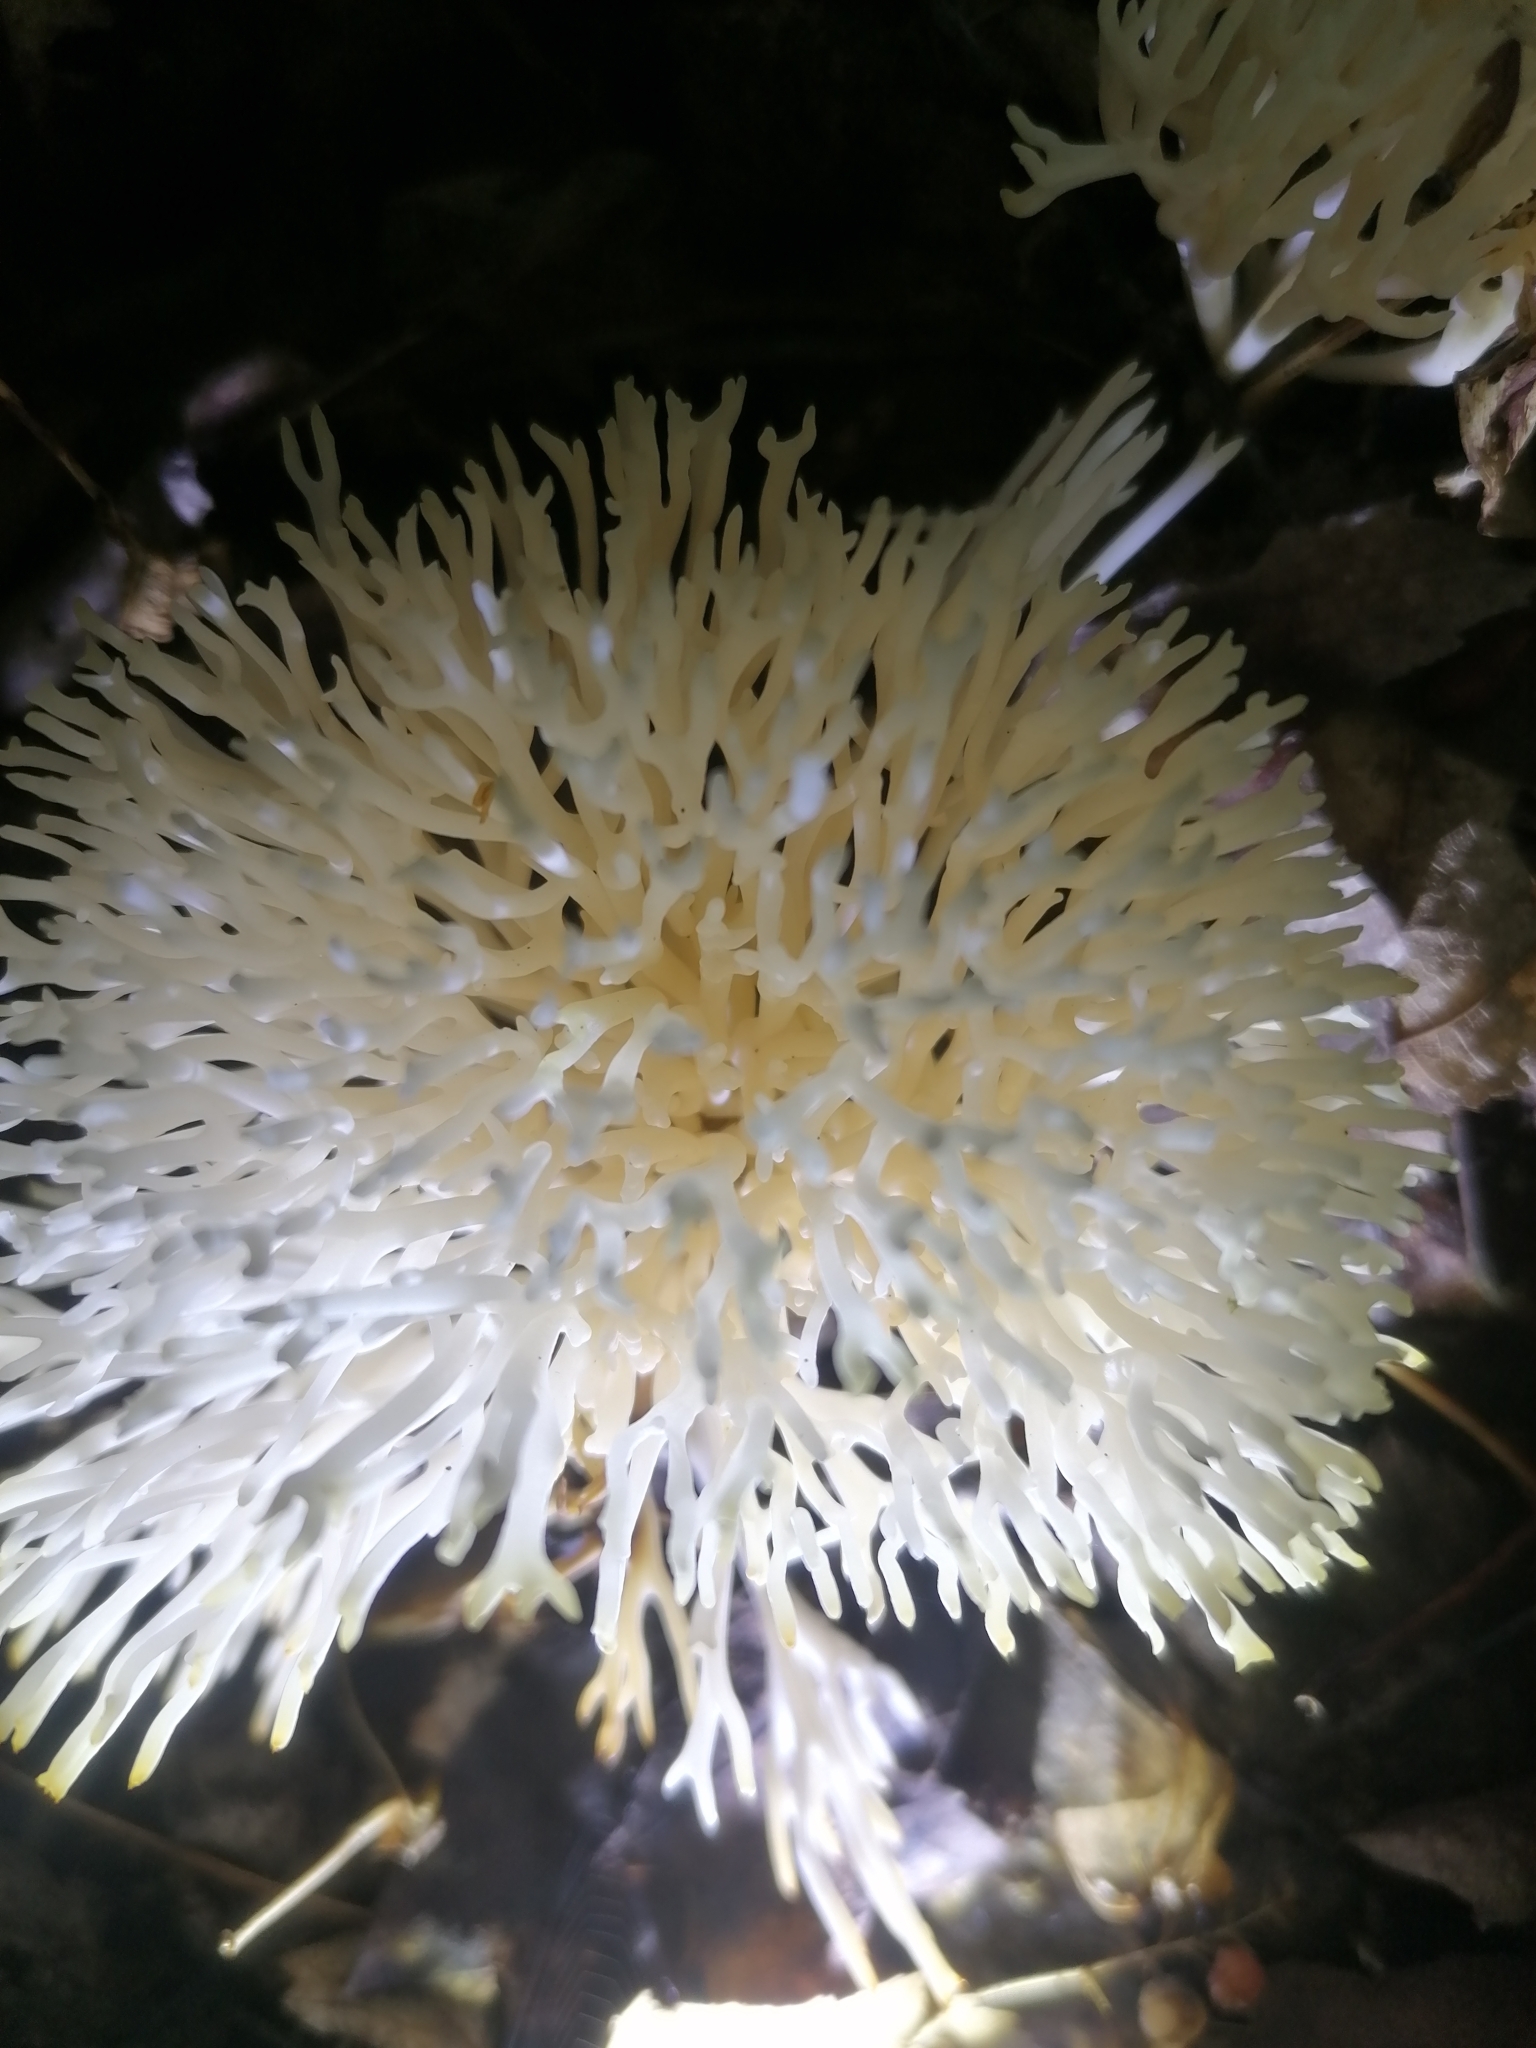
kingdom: Fungi
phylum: Basidiomycota
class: Agaricomycetes
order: Agaricales
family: Clavariaceae
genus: Ramariopsis
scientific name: Ramariopsis kunzei
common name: Ivory coral
